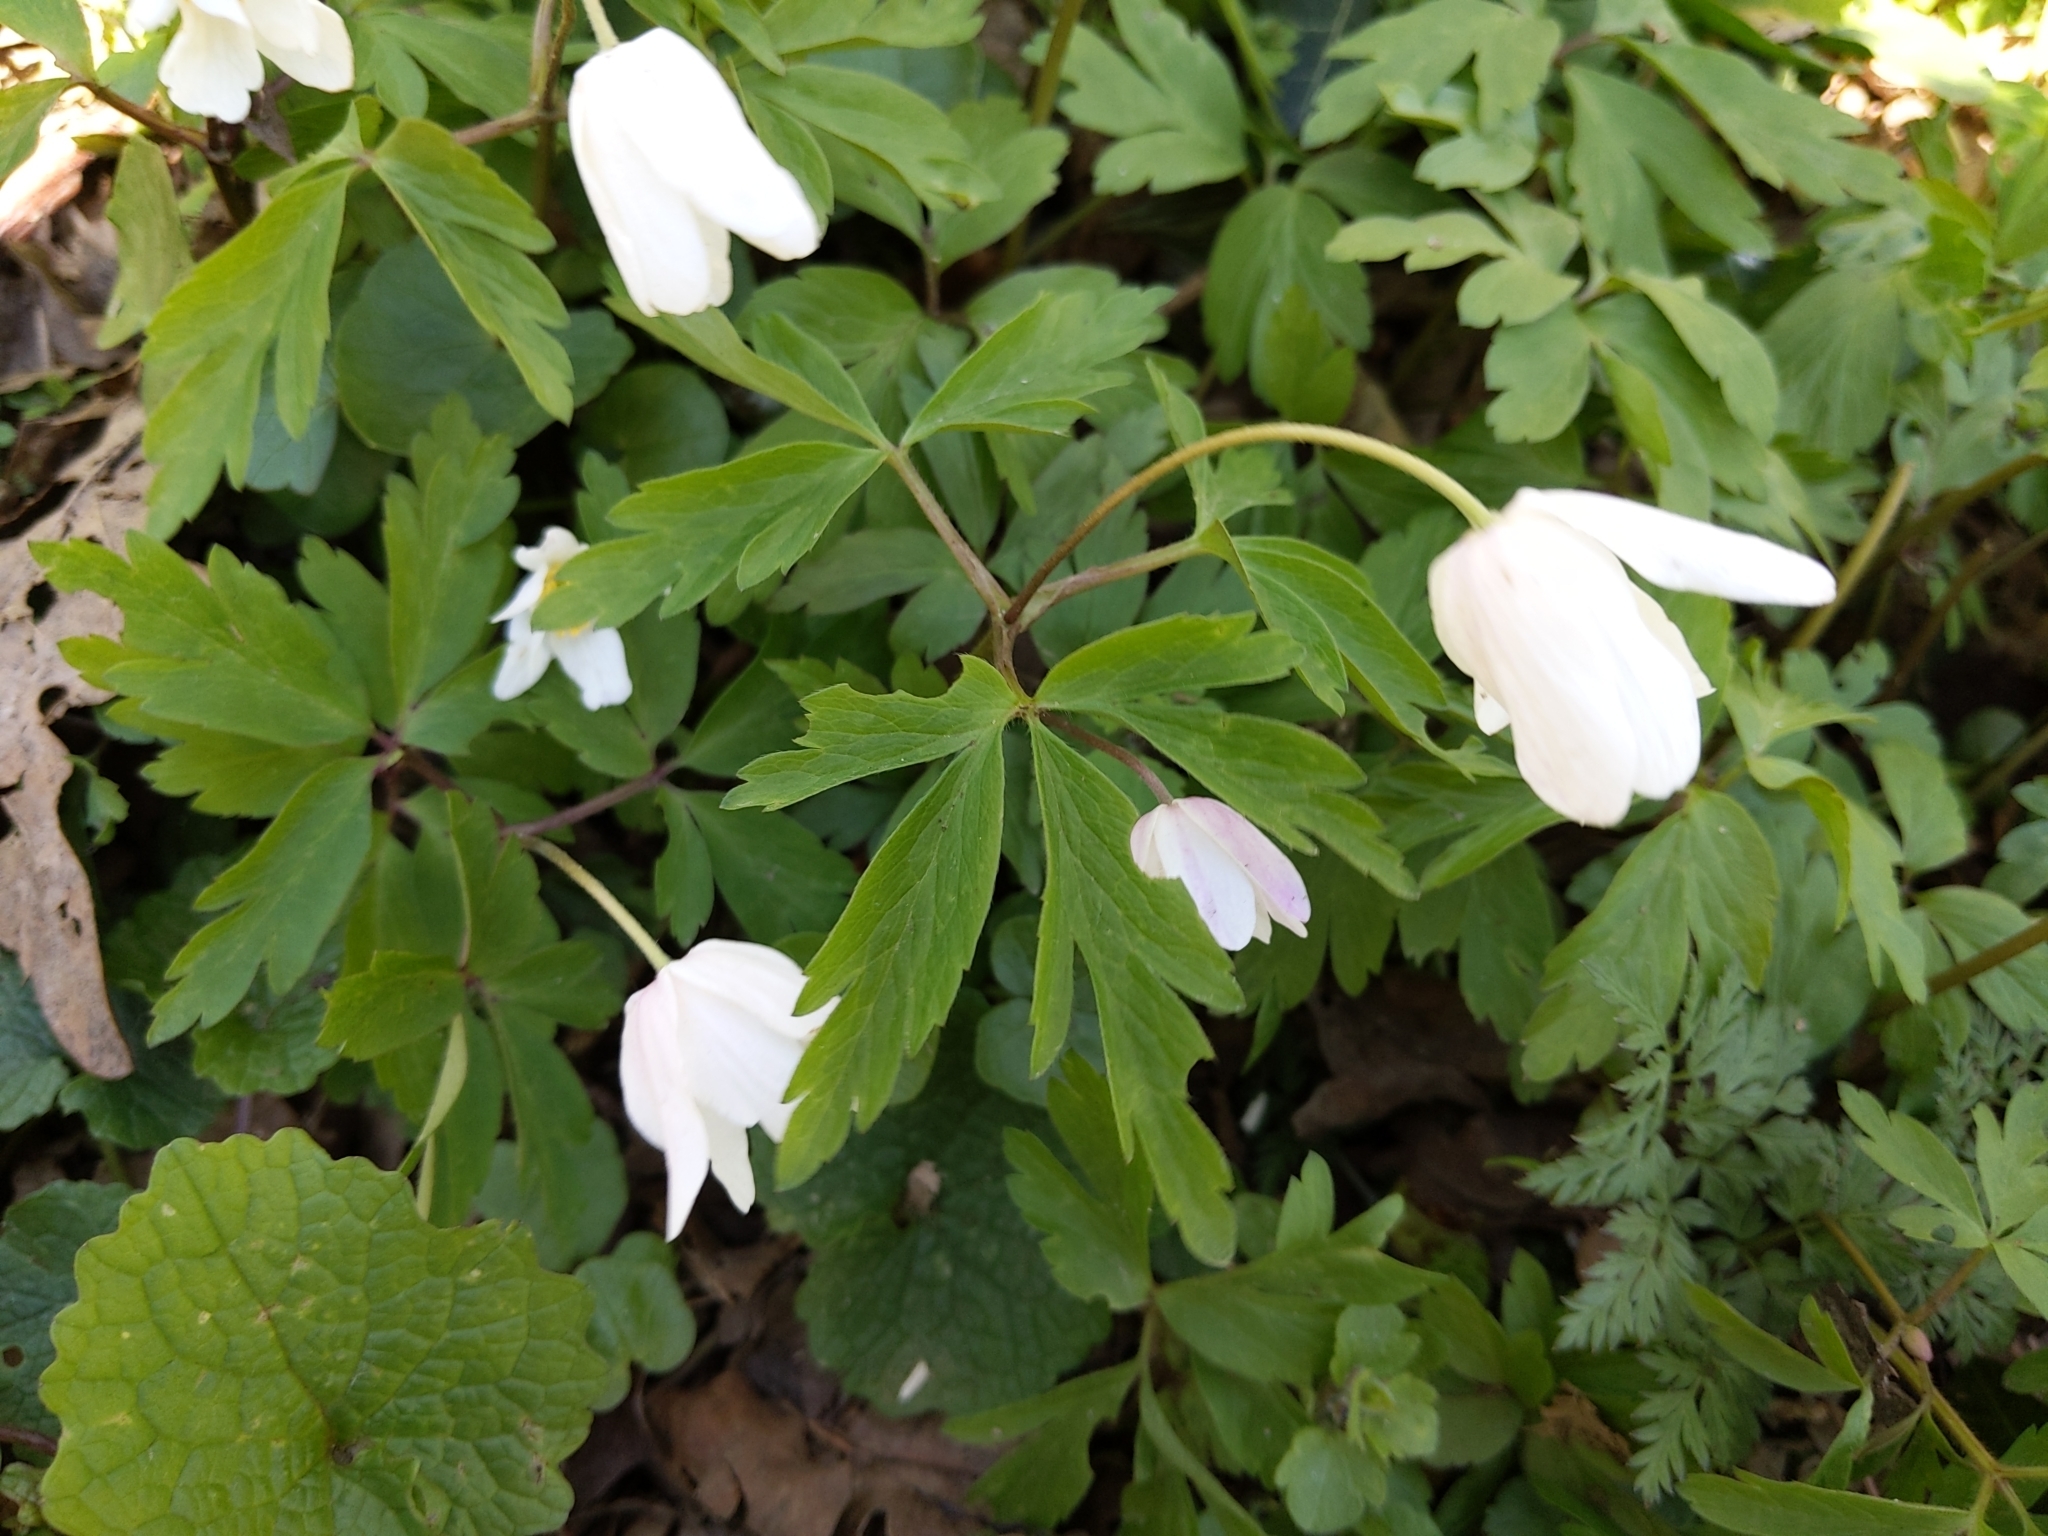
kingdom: Plantae
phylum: Tracheophyta
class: Magnoliopsida
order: Ranunculales
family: Ranunculaceae
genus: Anemone
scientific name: Anemone nemorosa
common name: Wood anemone
